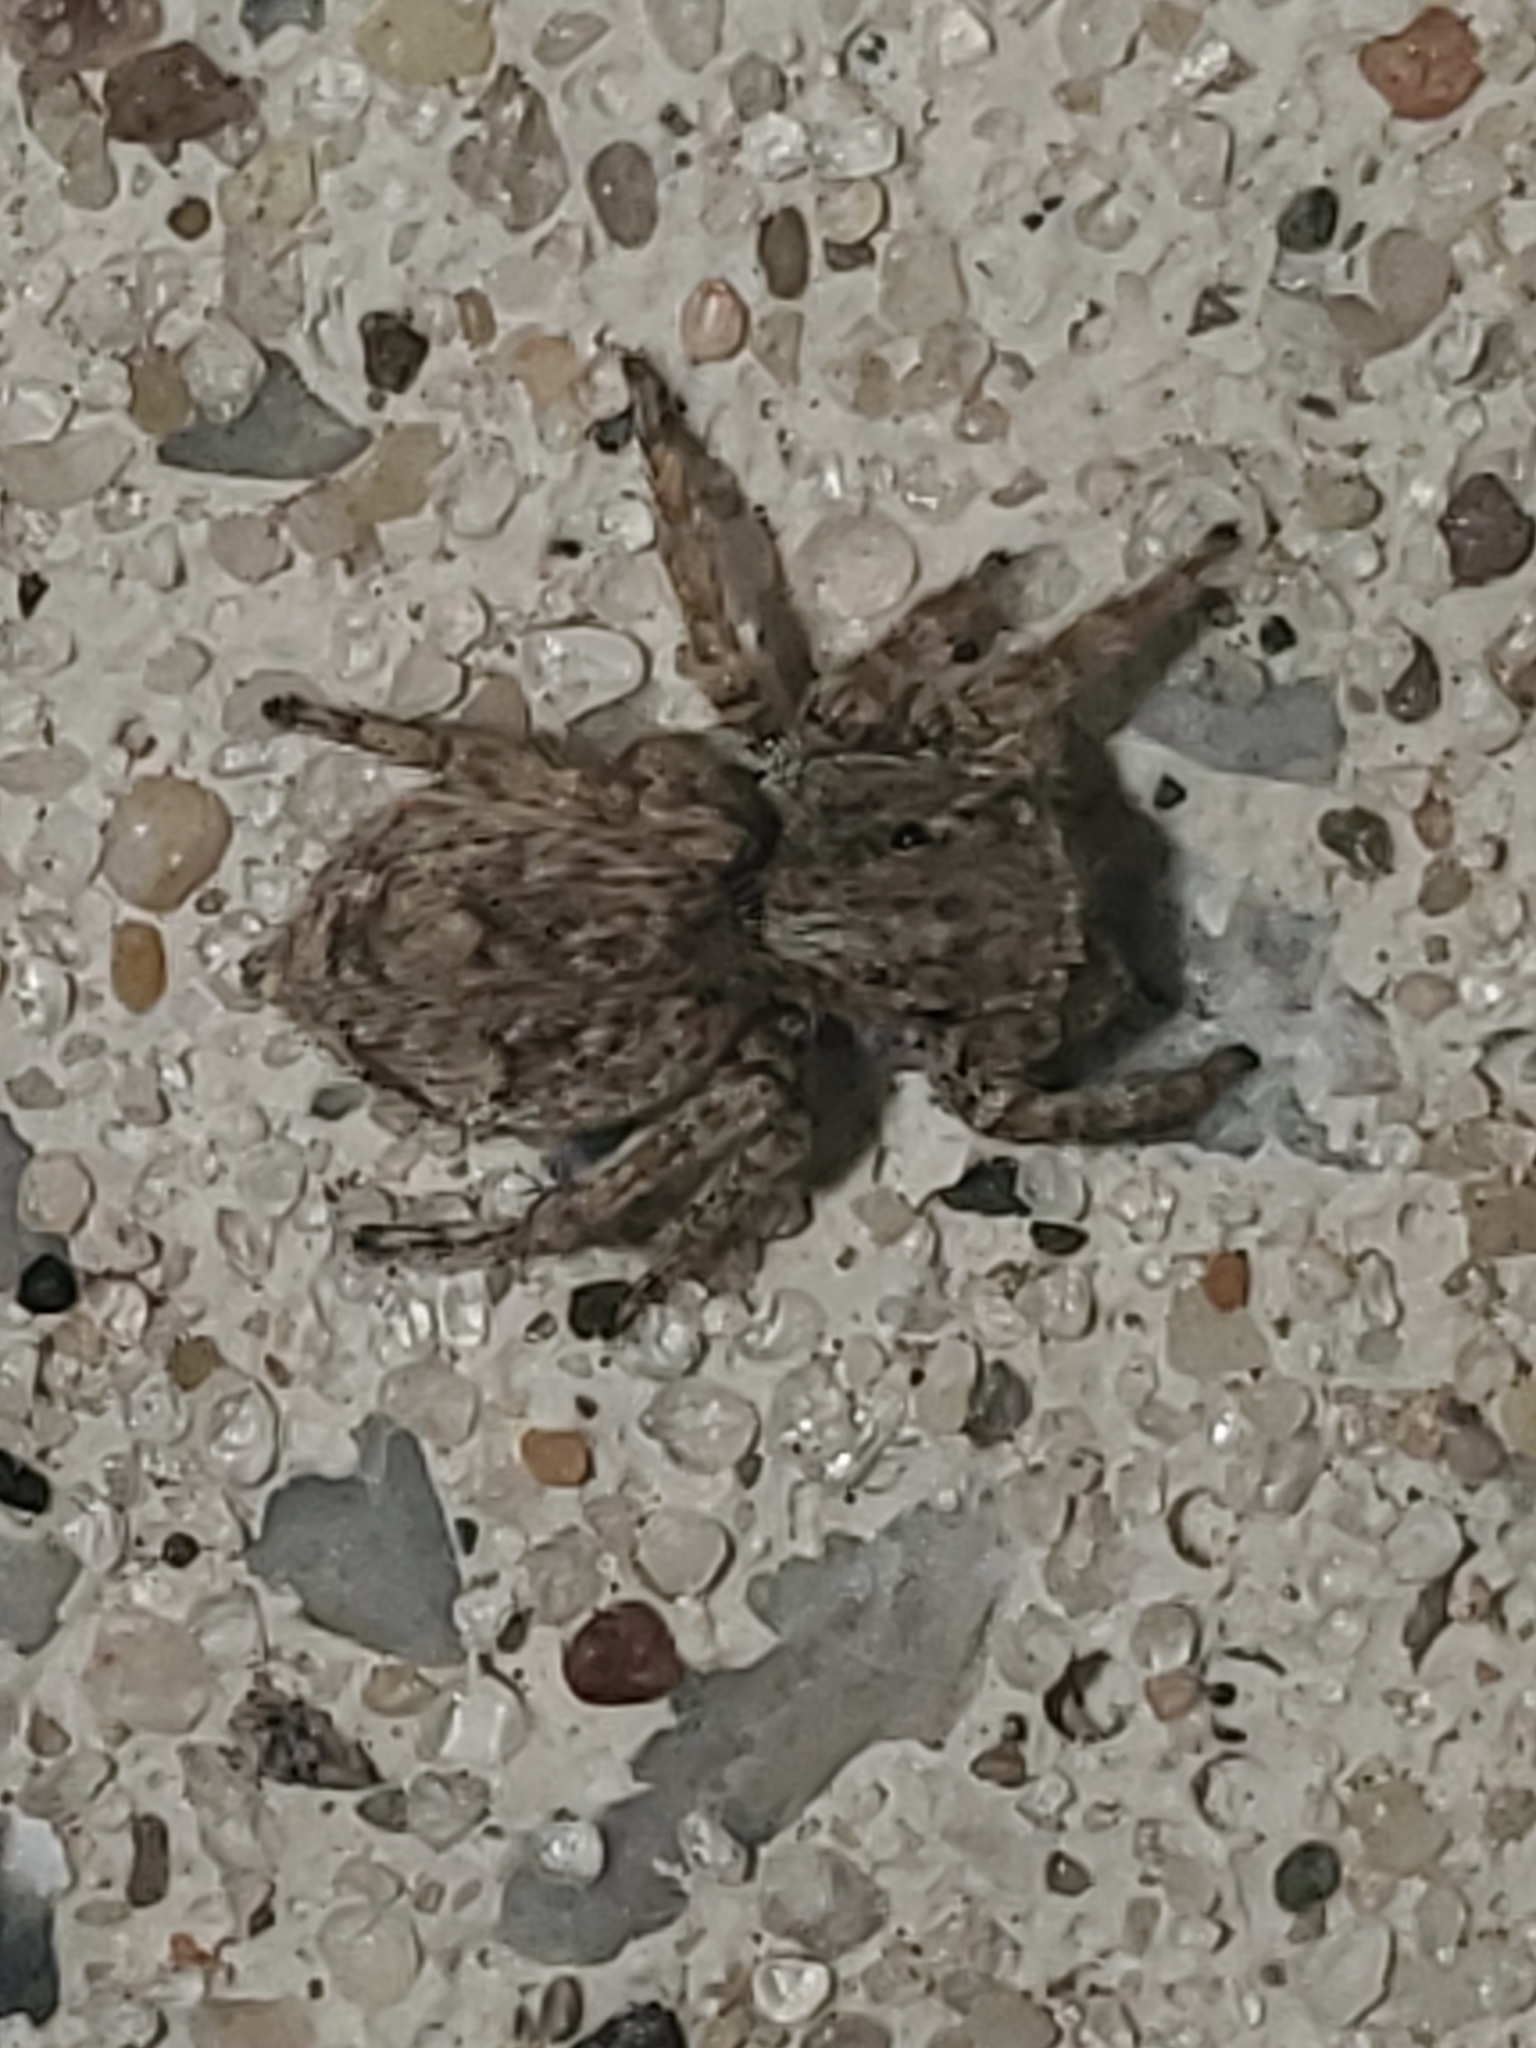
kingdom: Animalia
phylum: Arthropoda
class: Arachnida
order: Araneae
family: Salticidae
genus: Attulus
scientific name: Attulus fasciger
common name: Asiatic wall jumping spider
